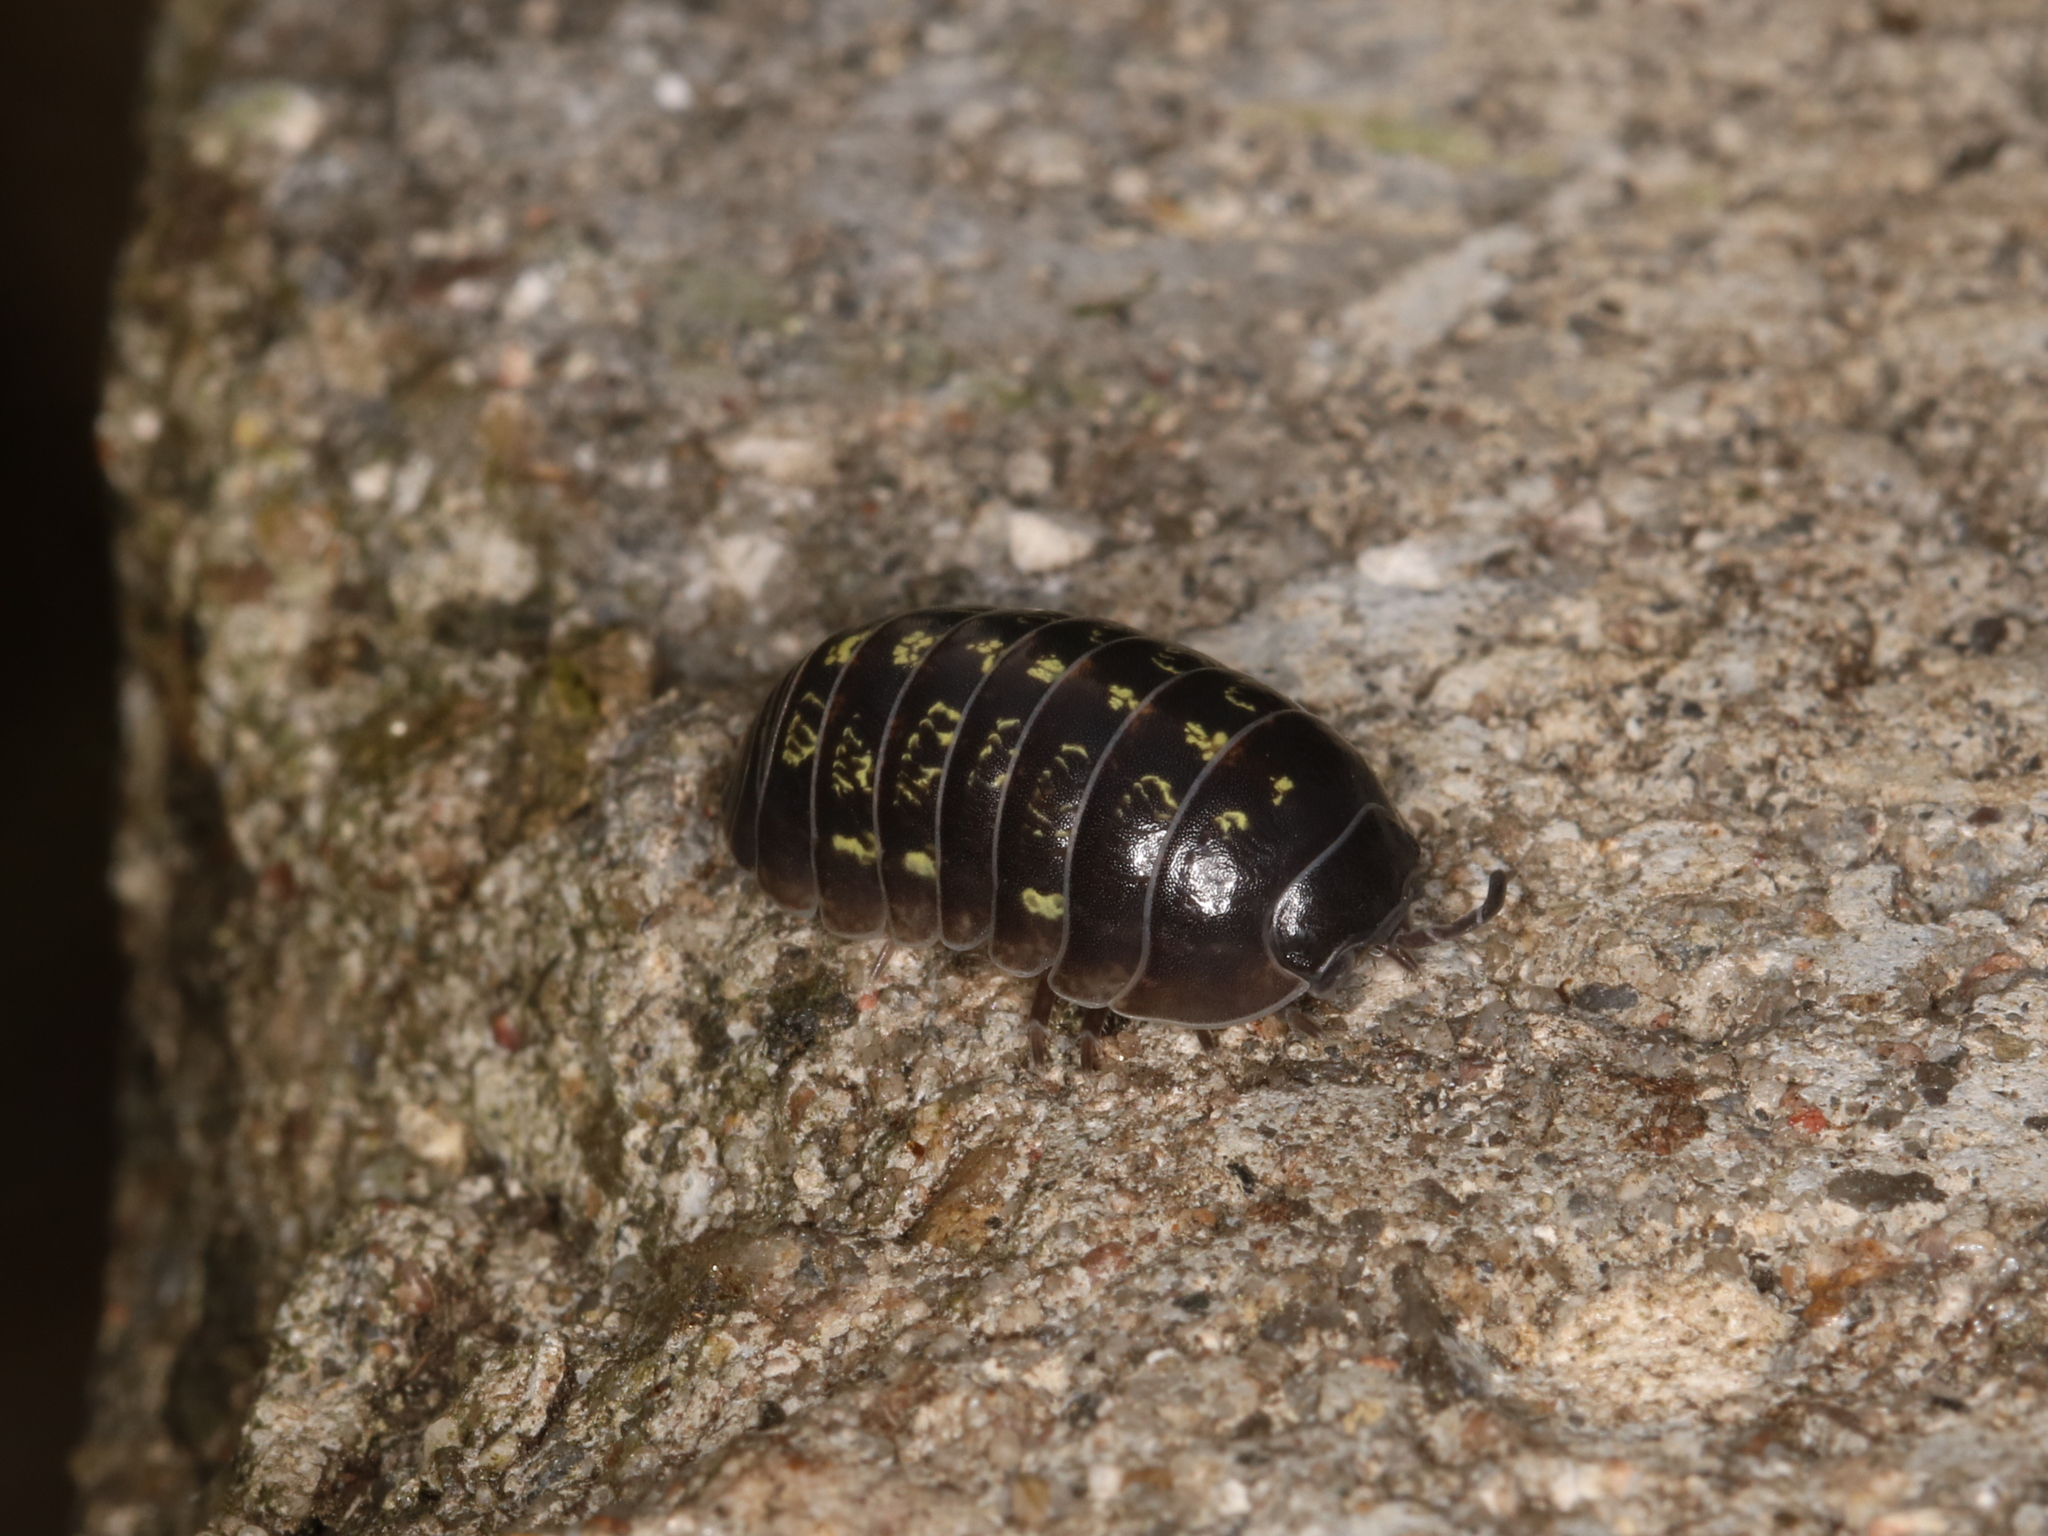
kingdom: Animalia
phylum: Arthropoda
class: Malacostraca
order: Isopoda
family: Armadillidiidae
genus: Armadillidium
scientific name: Armadillidium vulgare
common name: Common pill woodlouse
